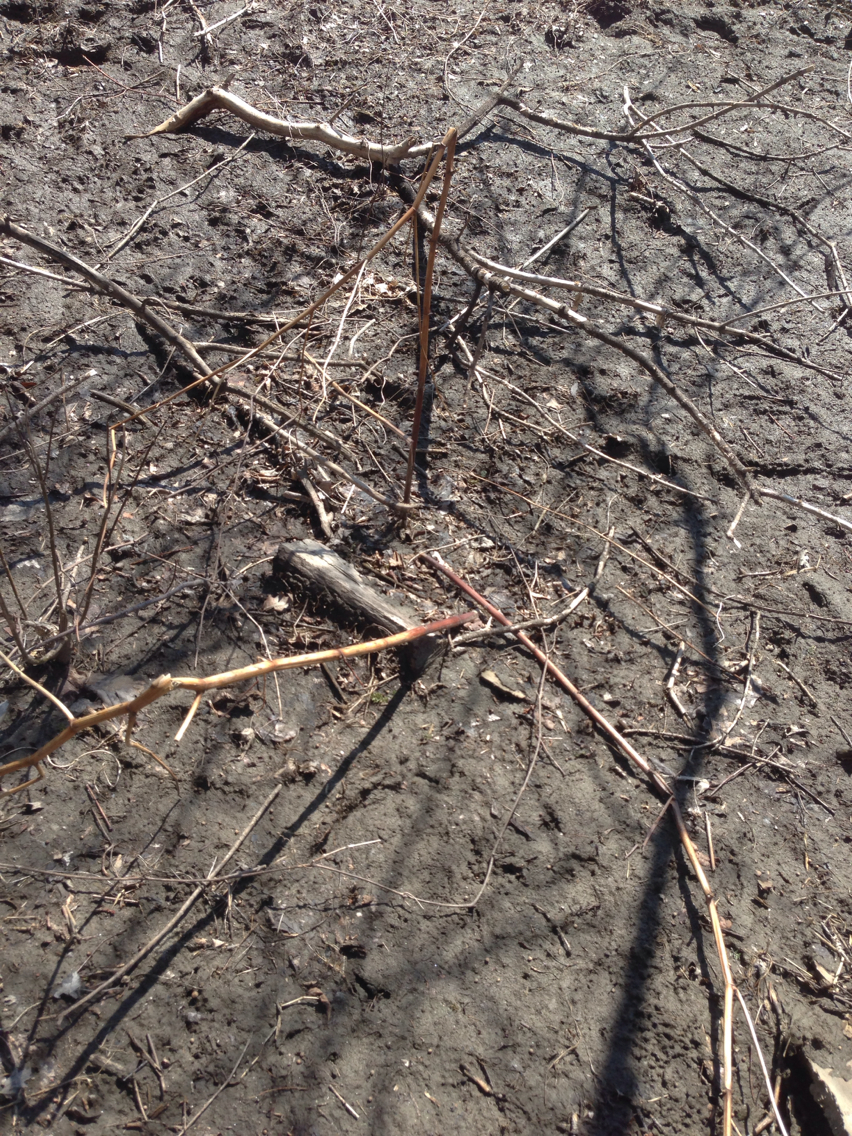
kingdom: Plantae
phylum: Tracheophyta
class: Magnoliopsida
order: Caryophyllales
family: Polygonaceae
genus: Reynoutria
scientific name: Reynoutria japonica
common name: Japanese knotweed
